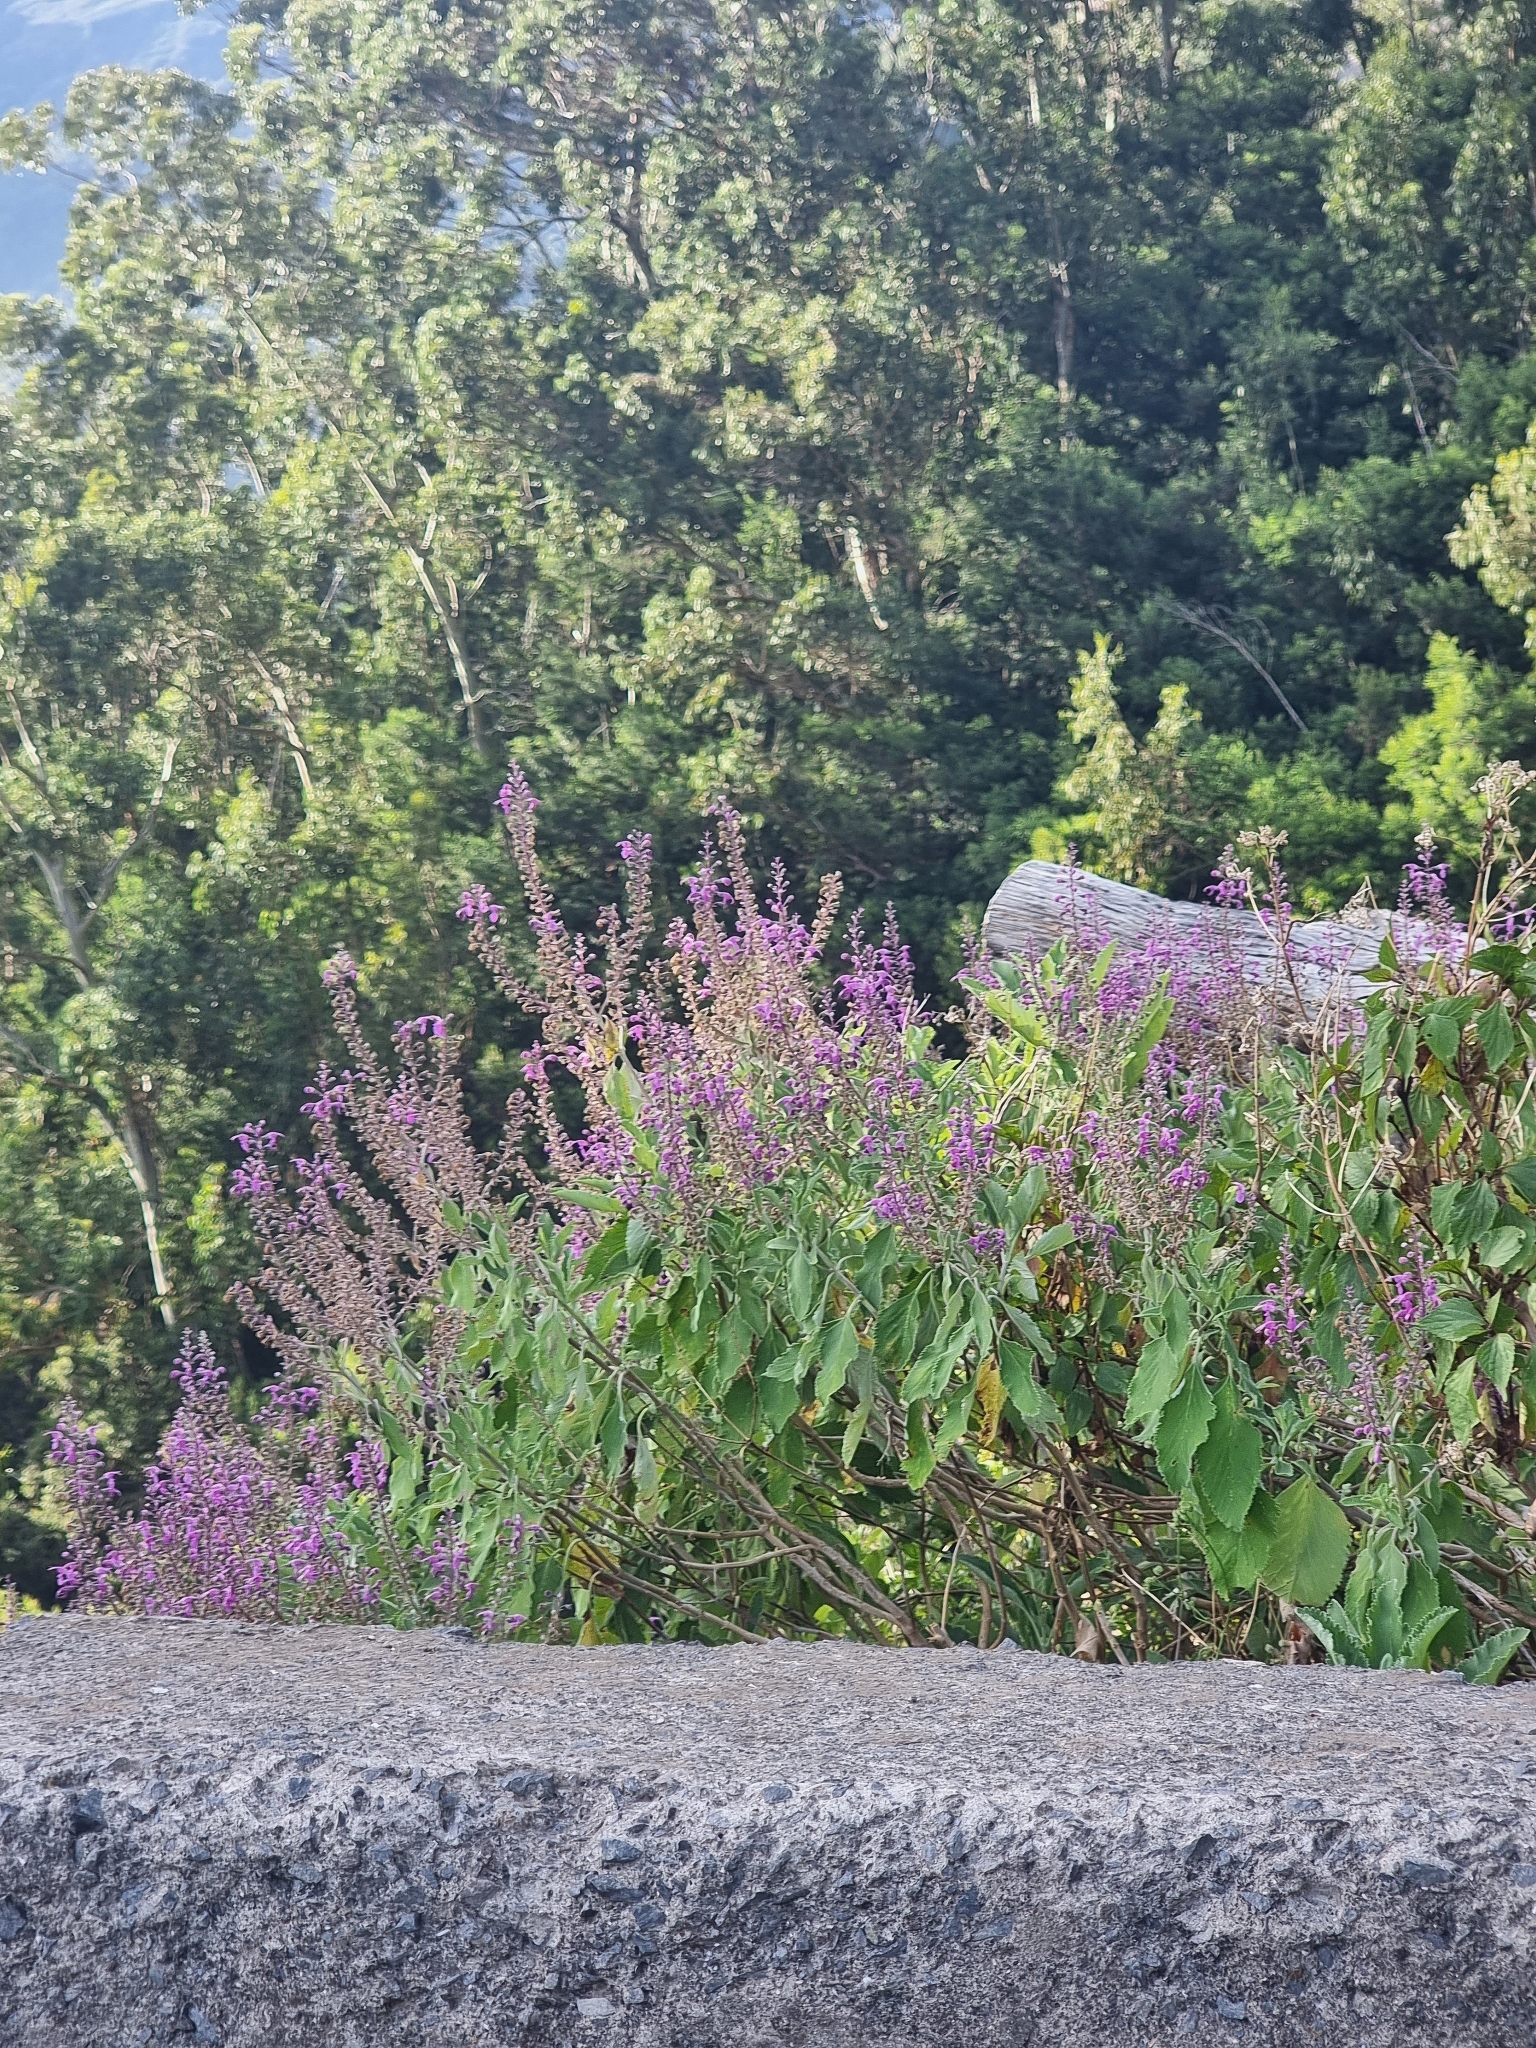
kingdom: Plantae
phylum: Tracheophyta
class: Magnoliopsida
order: Lamiales
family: Lamiaceae
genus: Teucrium
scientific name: Teucrium betonicum
